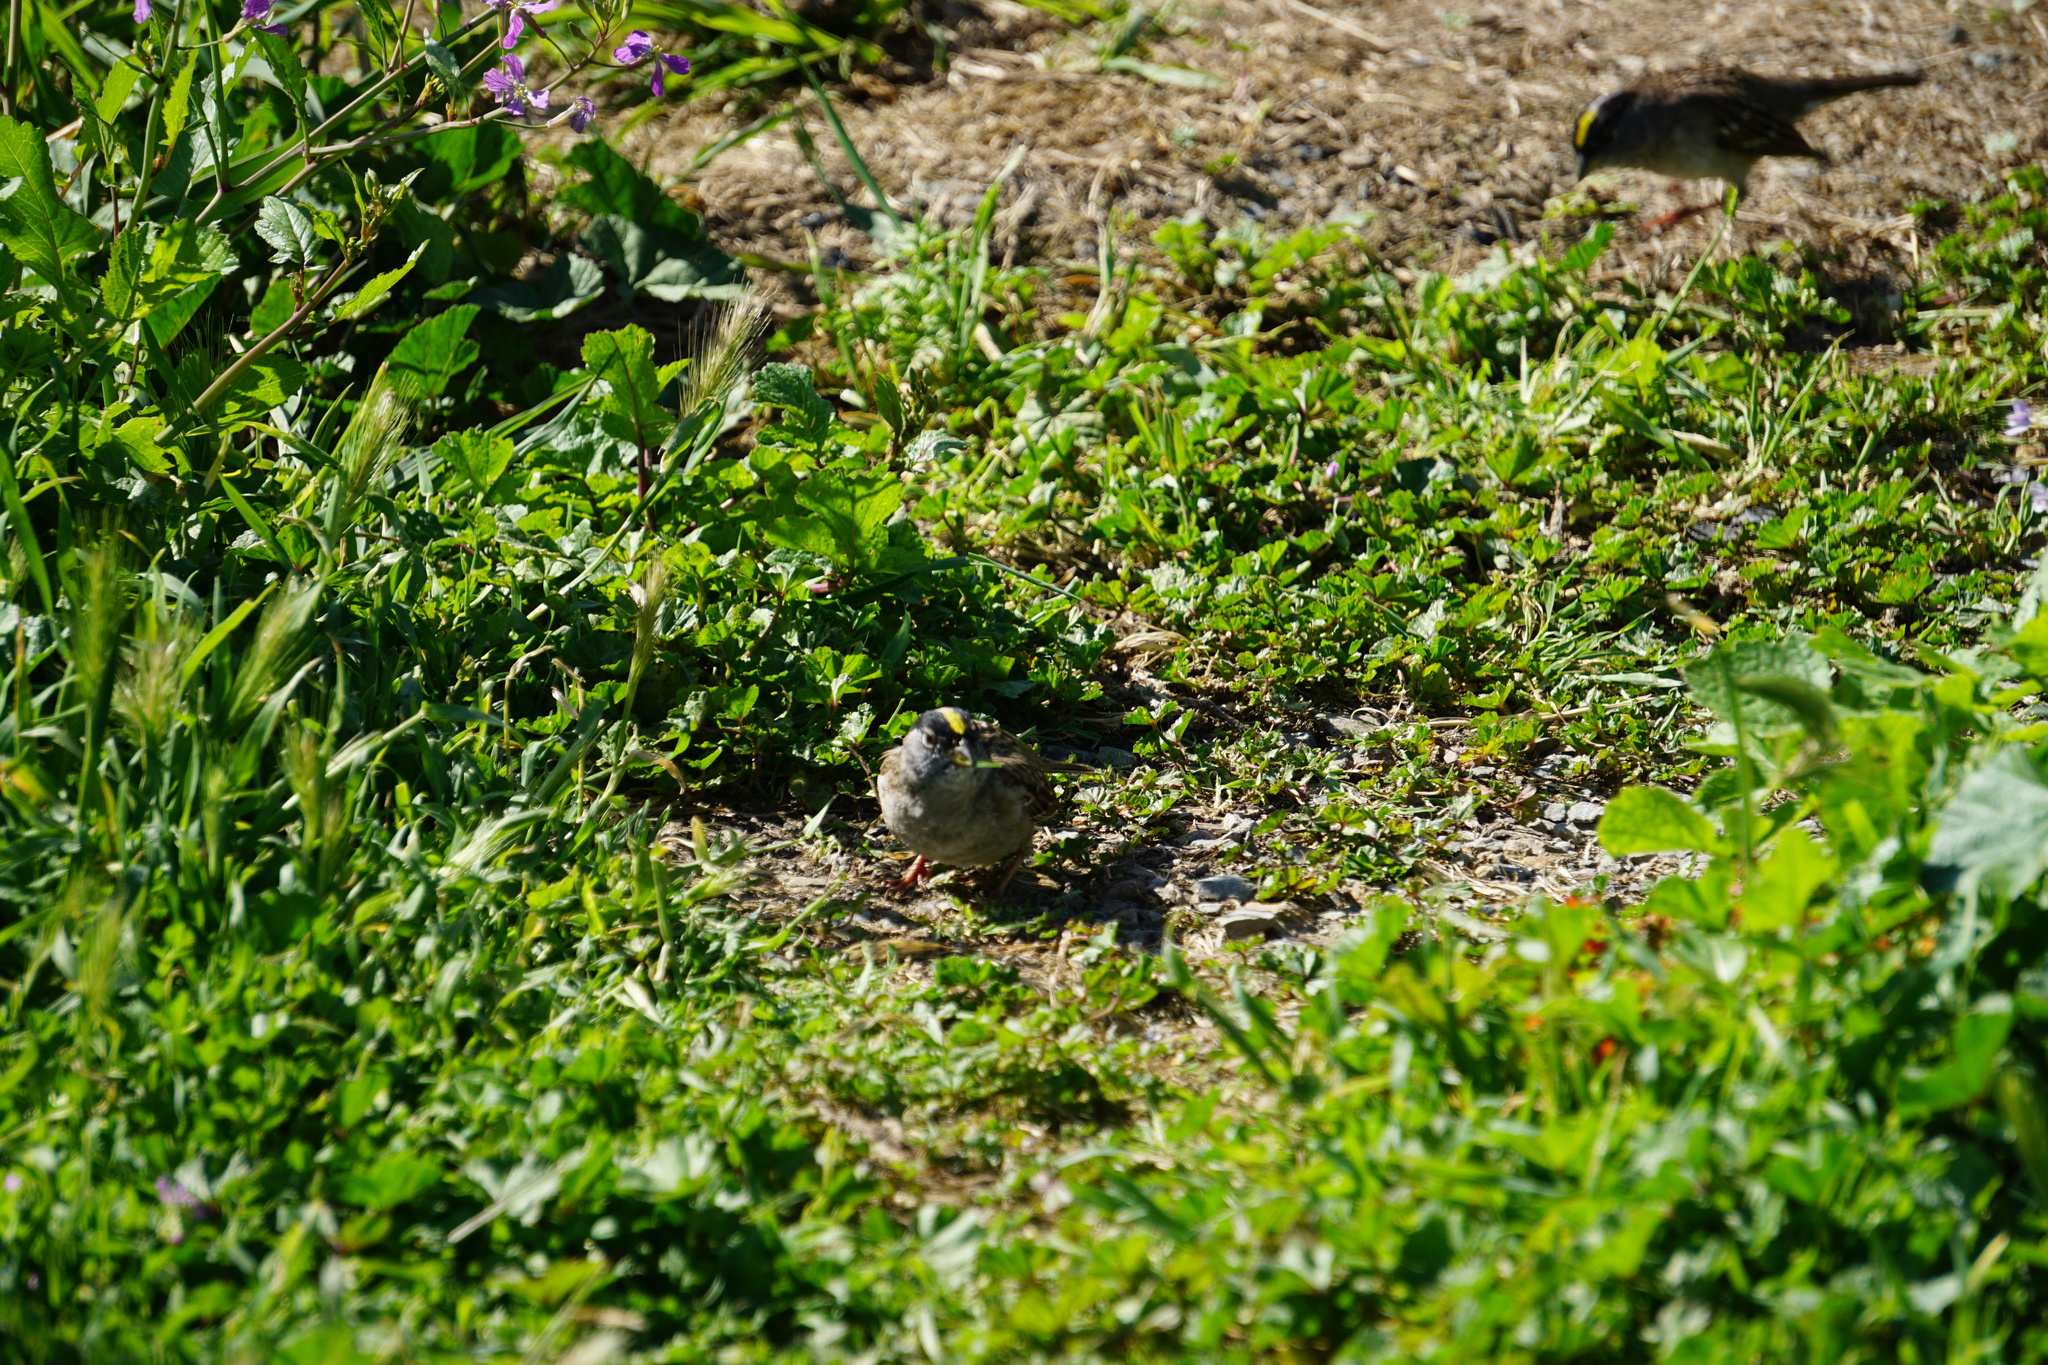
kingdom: Animalia
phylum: Chordata
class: Aves
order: Passeriformes
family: Passerellidae
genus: Zonotrichia
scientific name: Zonotrichia atricapilla
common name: Golden-crowned sparrow
